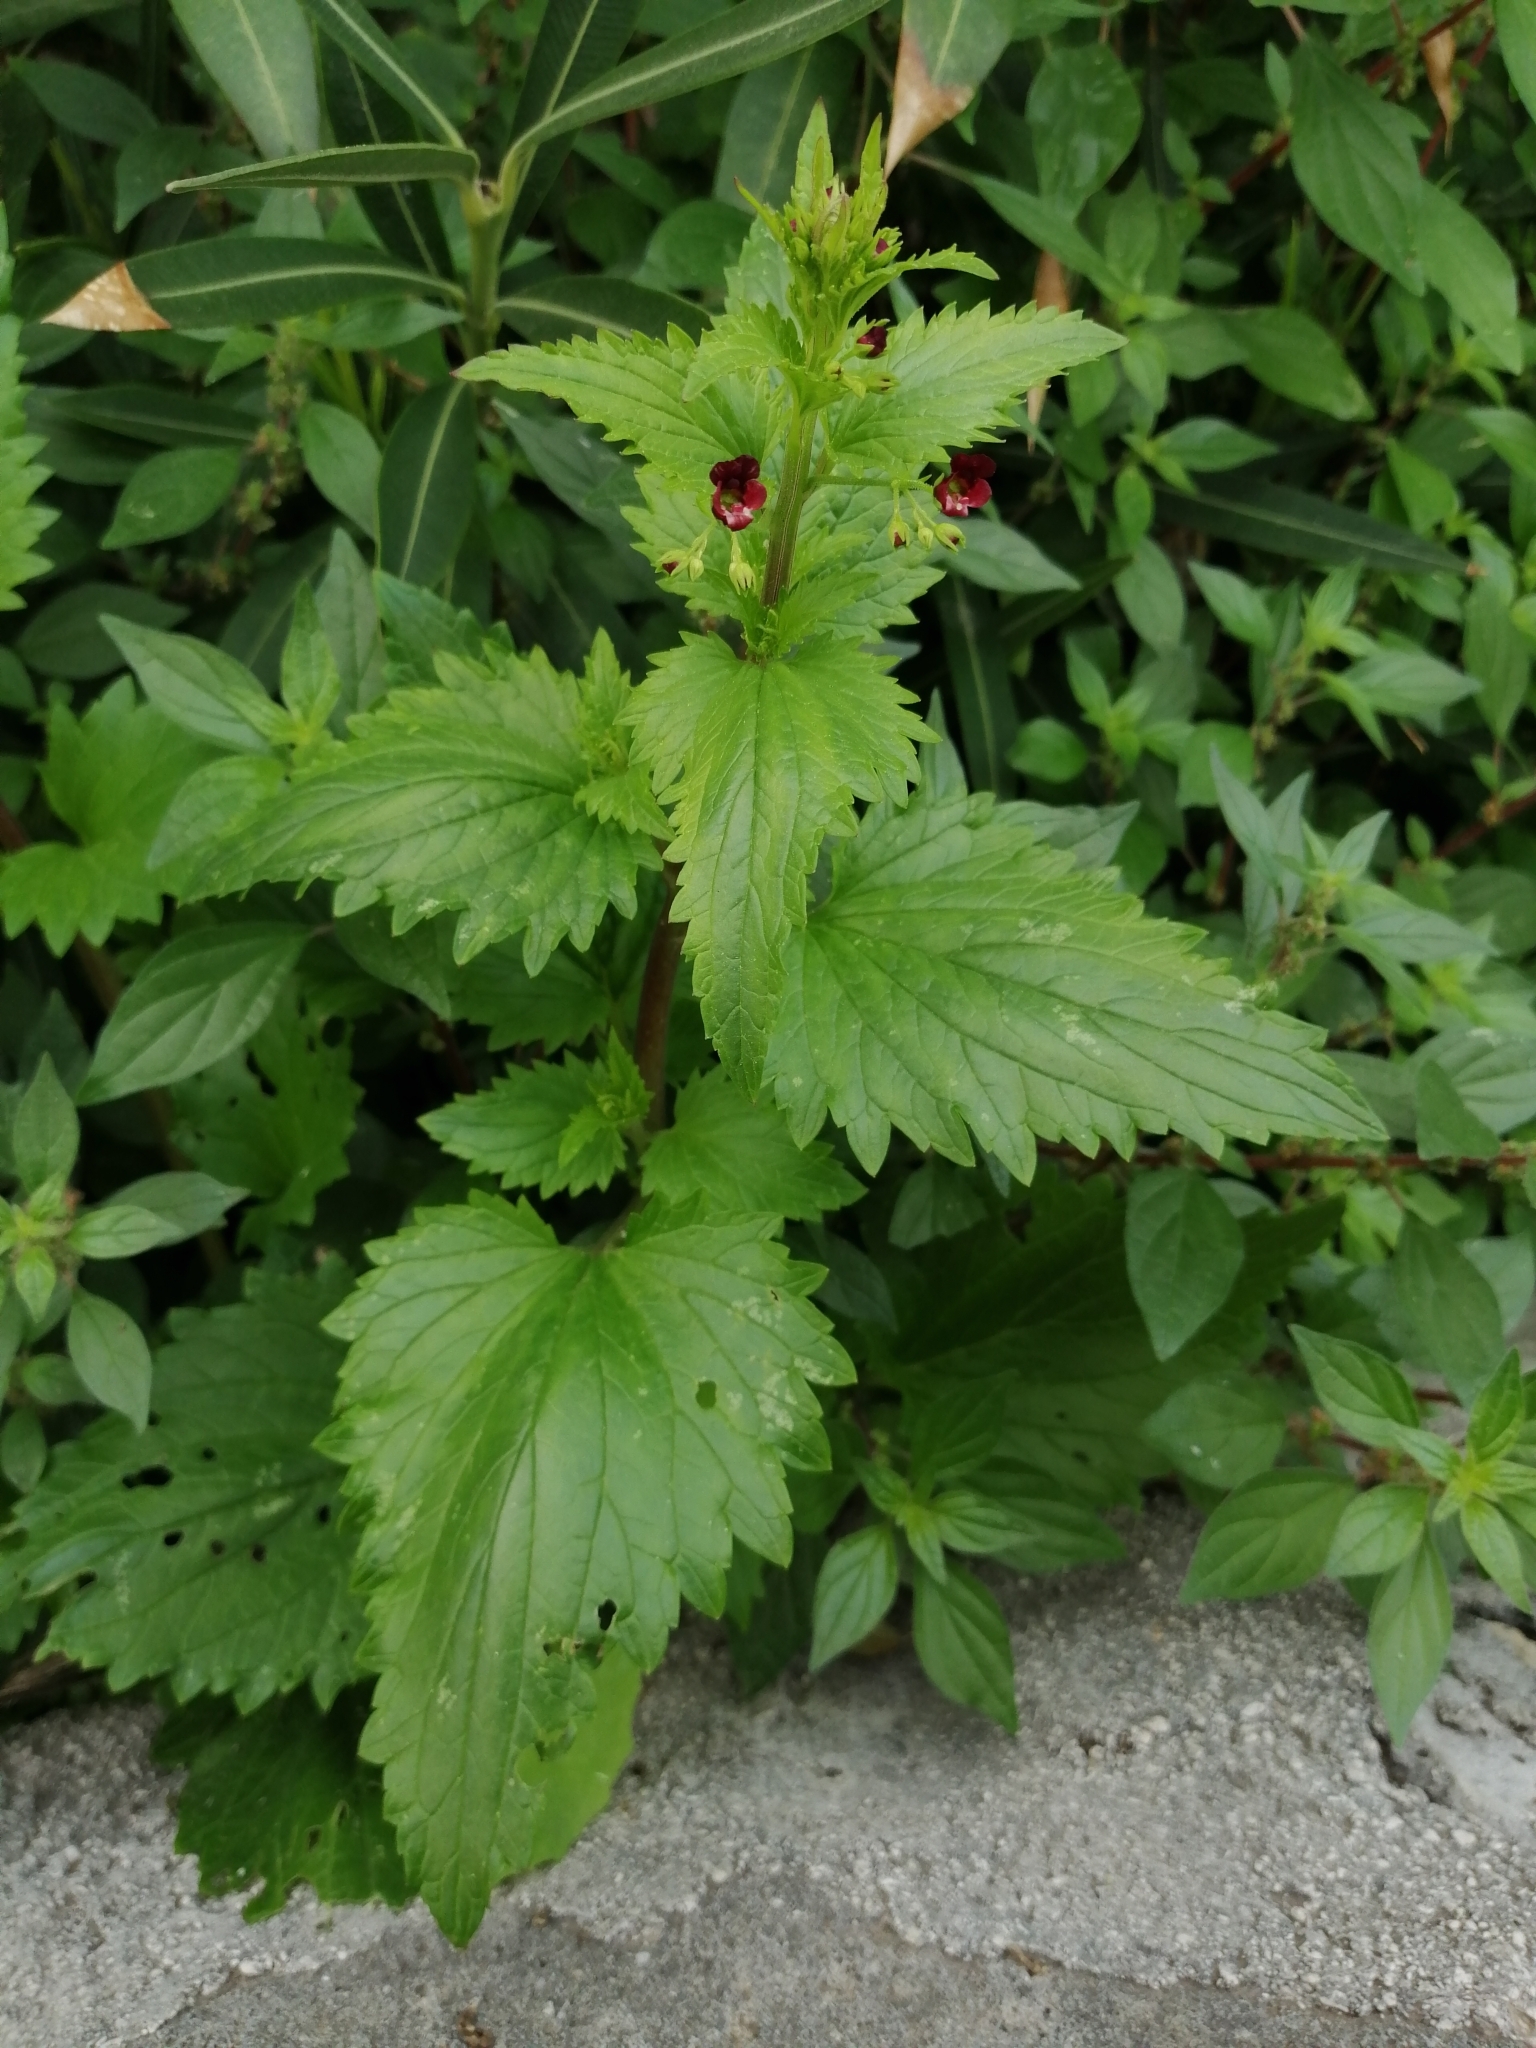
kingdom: Plantae
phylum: Tracheophyta
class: Magnoliopsida
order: Lamiales
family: Scrophulariaceae
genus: Scrophularia
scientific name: Scrophularia peregrina
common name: Mediterranean figwort
